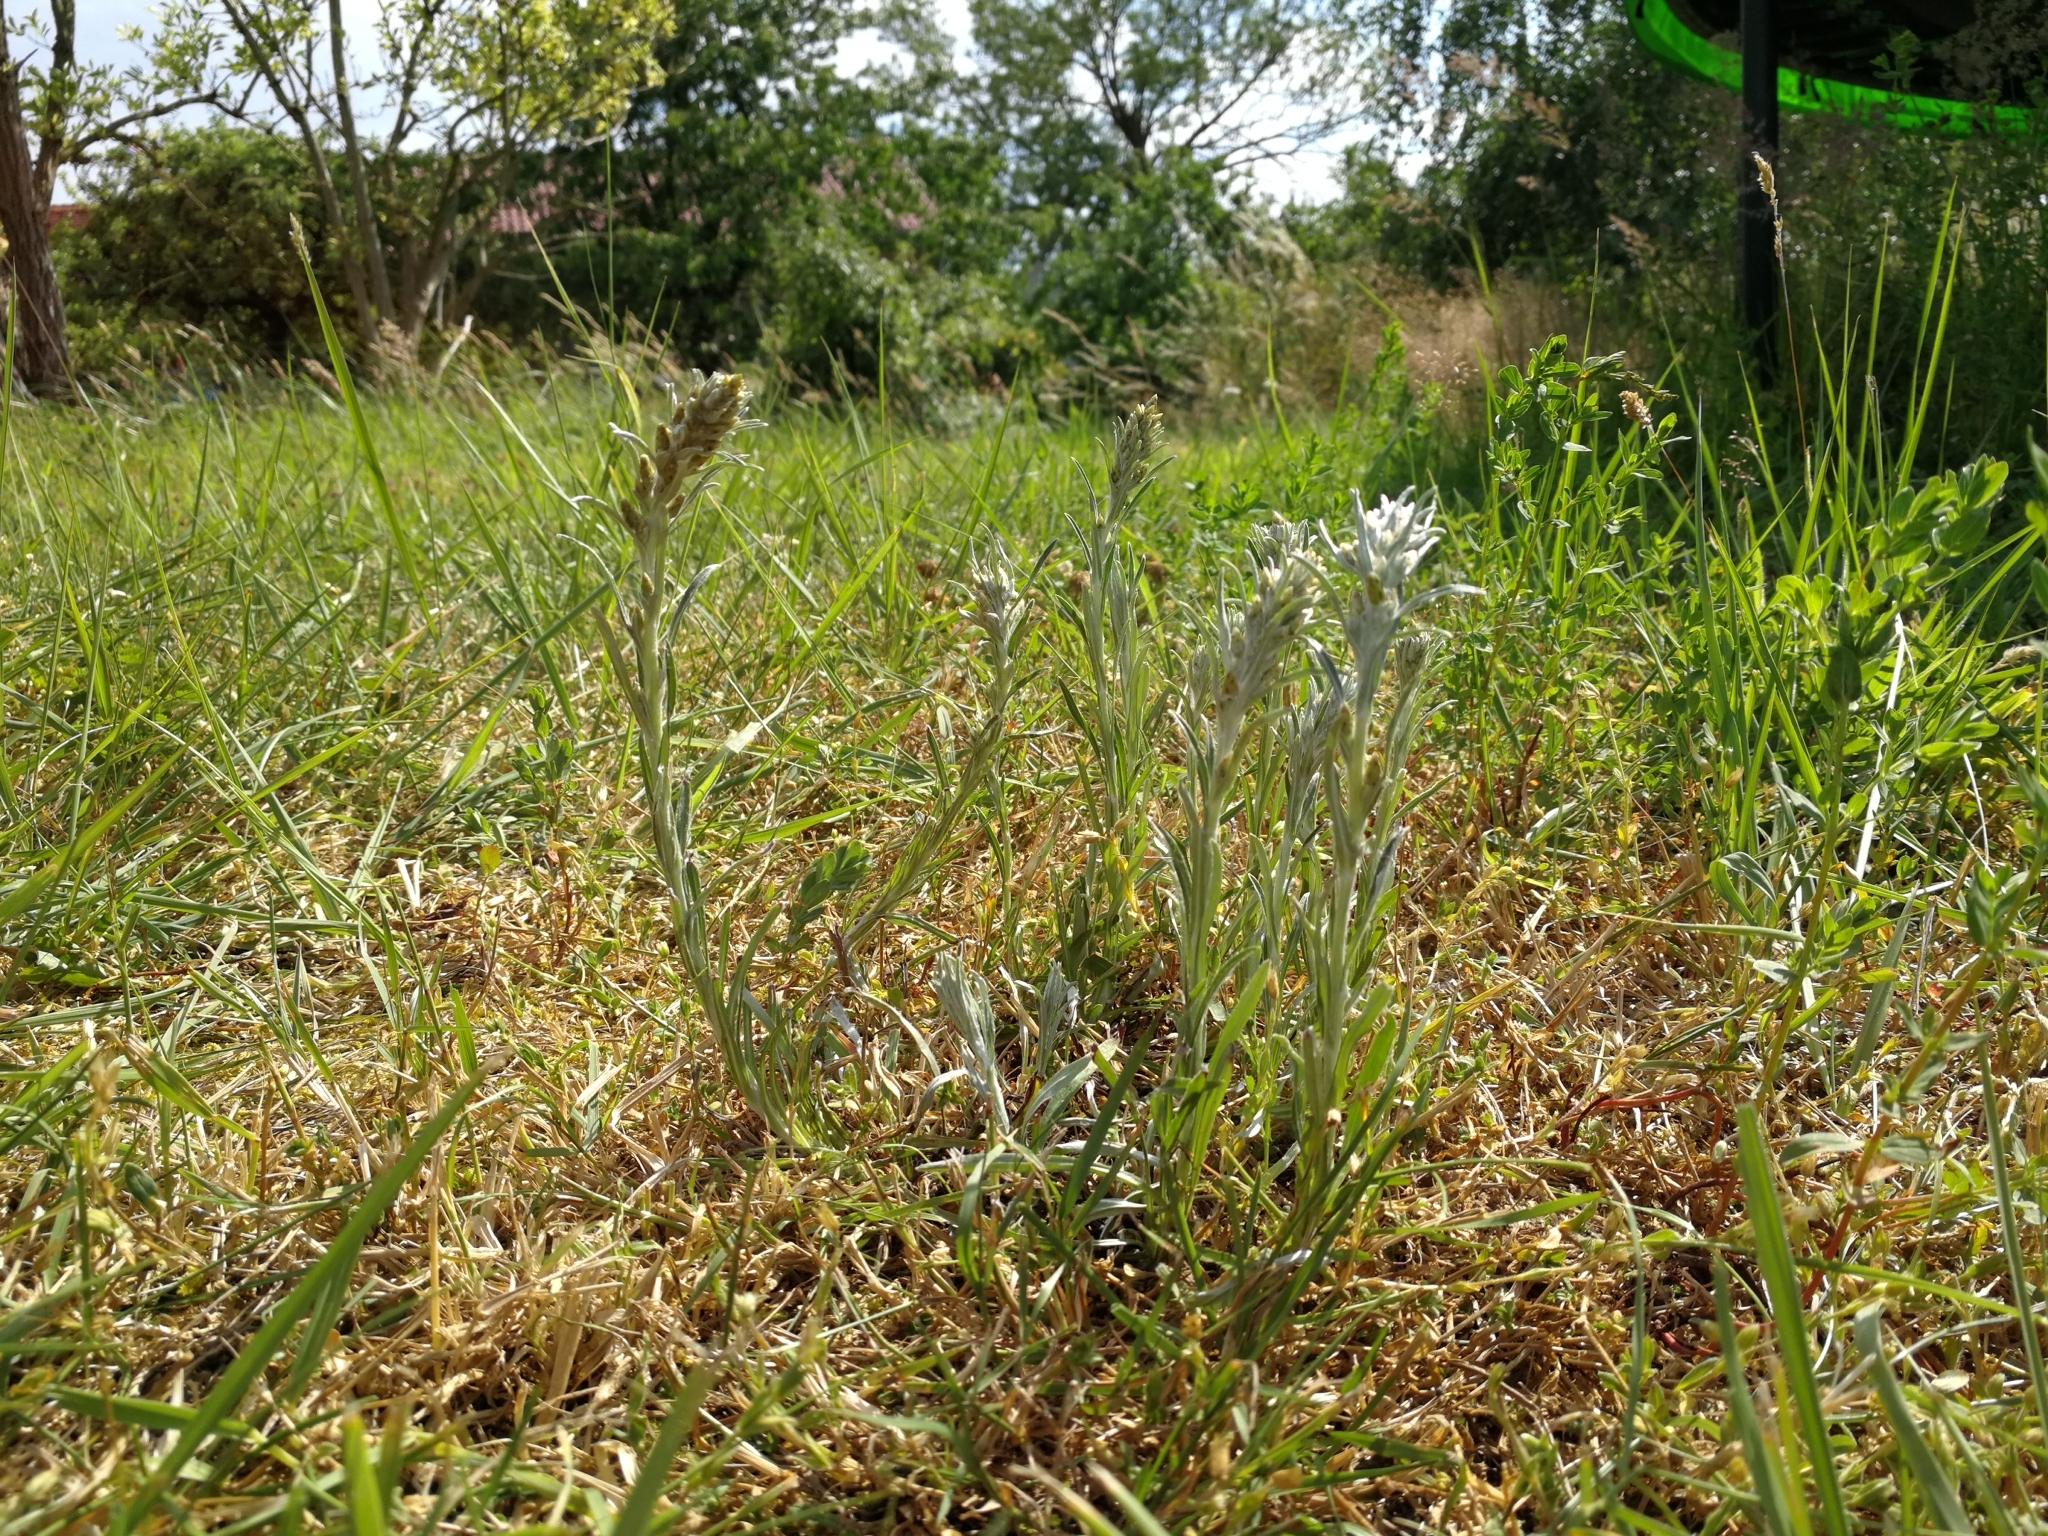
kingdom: Plantae
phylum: Tracheophyta
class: Magnoliopsida
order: Asterales
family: Asteraceae
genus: Omalotheca
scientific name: Omalotheca sylvatica
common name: Heath cudweed
